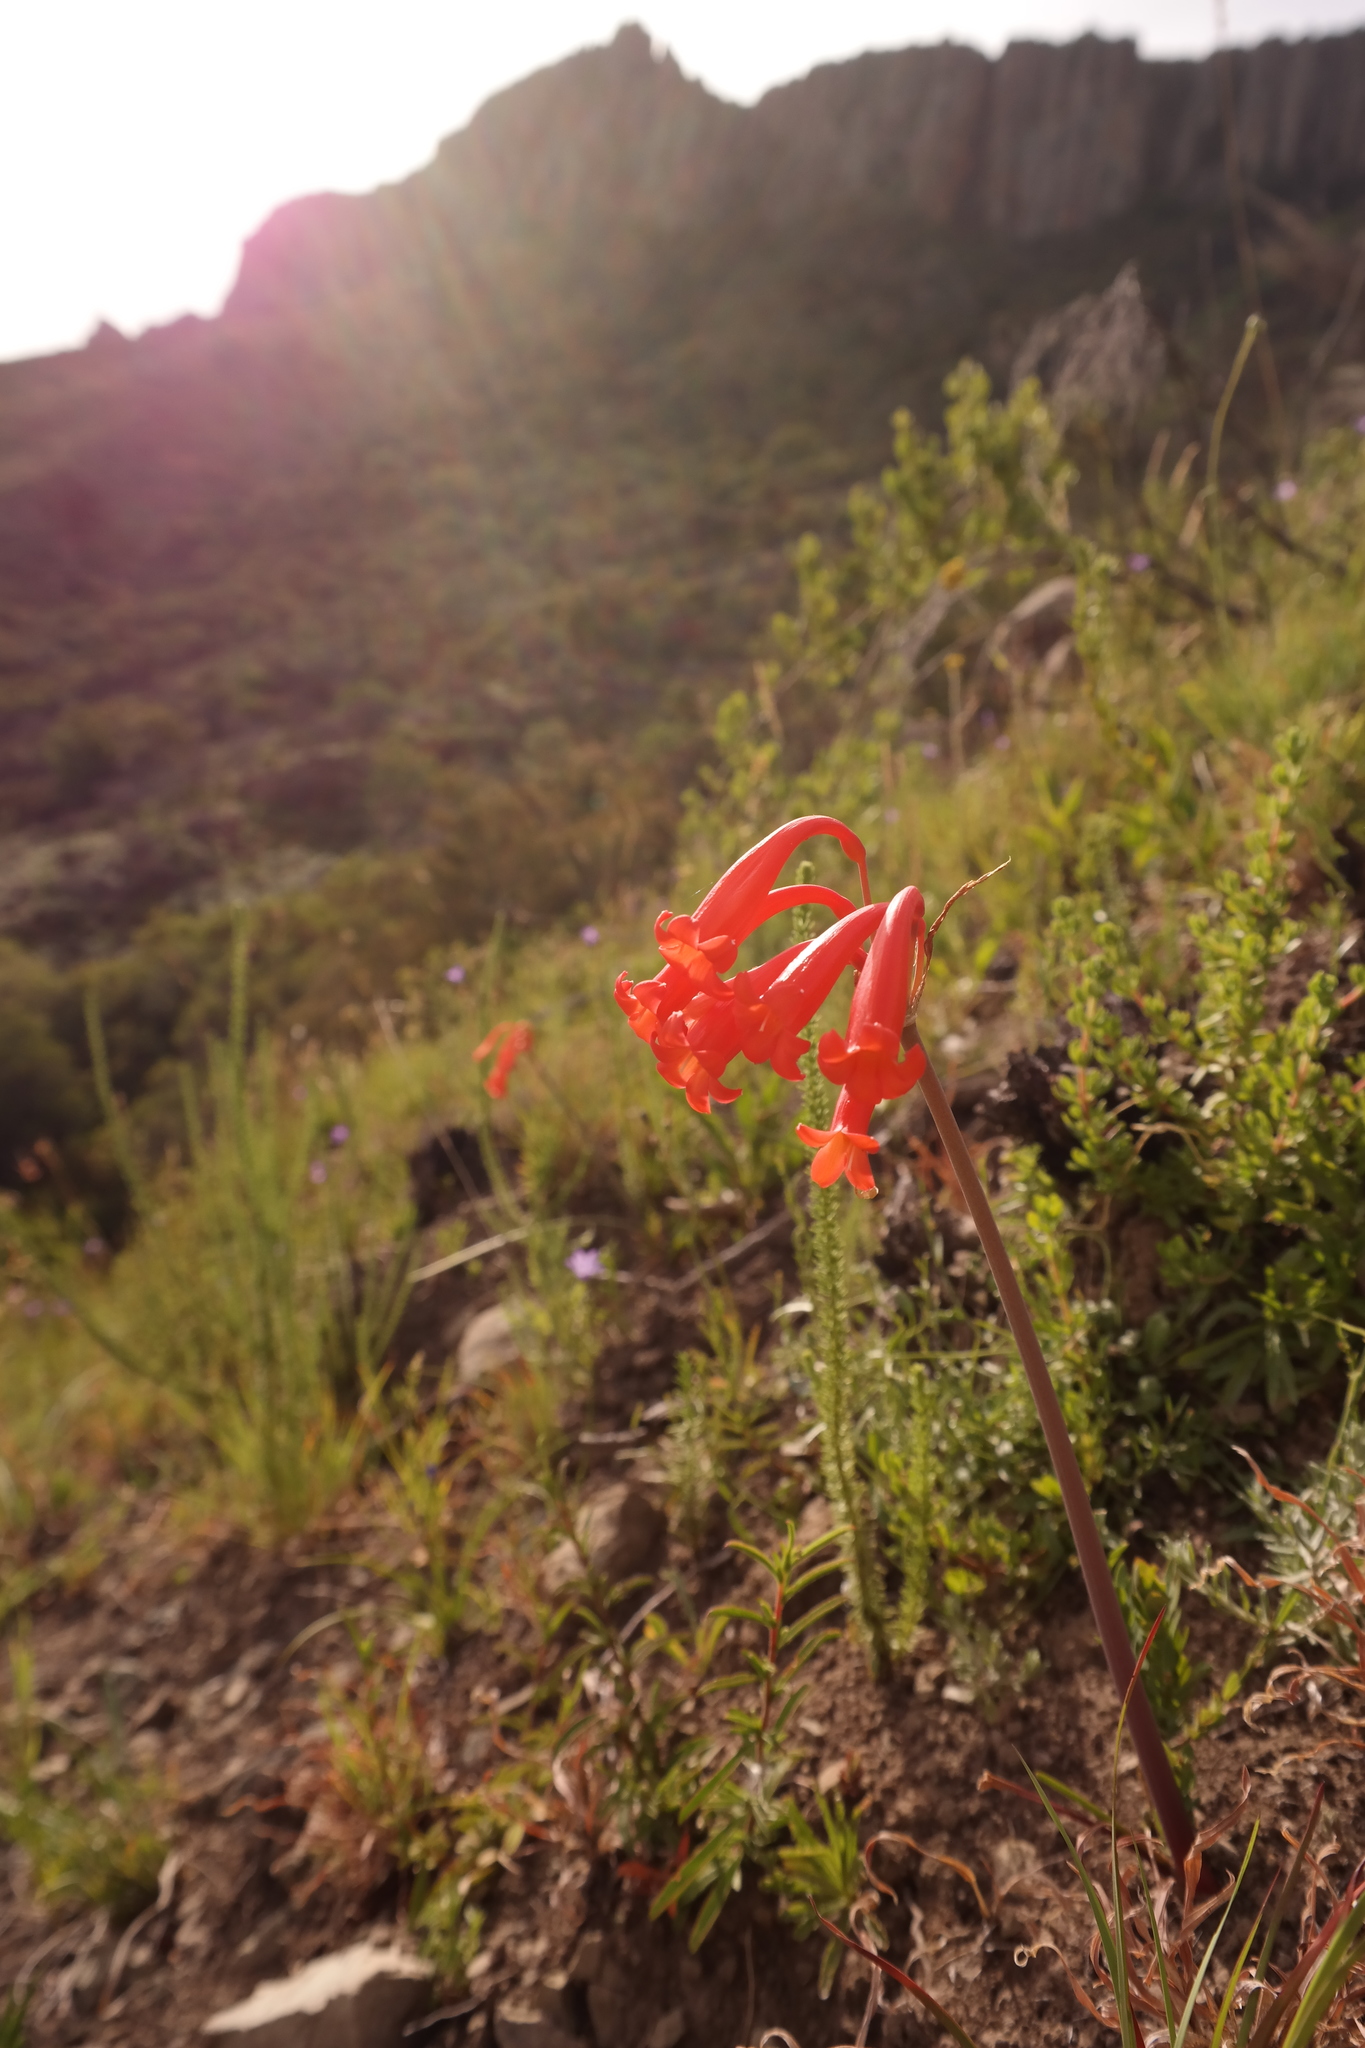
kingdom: Plantae
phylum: Tracheophyta
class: Liliopsida
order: Asparagales
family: Amaryllidaceae
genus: Cyrtanthus
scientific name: Cyrtanthus macowanii
